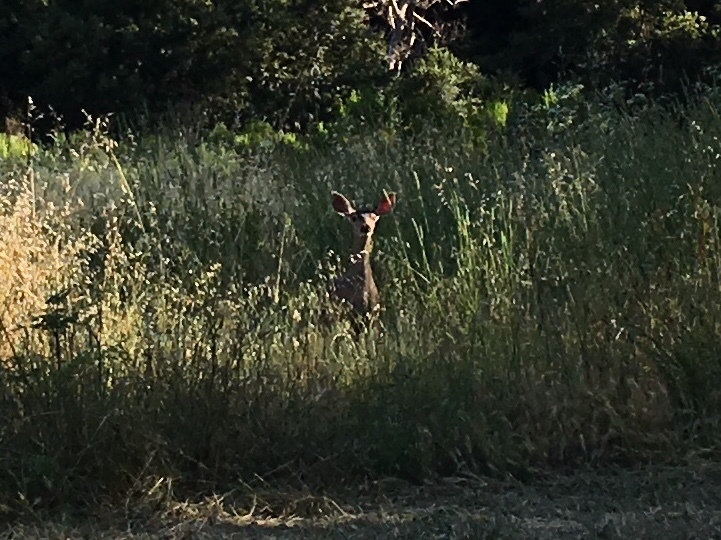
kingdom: Animalia
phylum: Chordata
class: Mammalia
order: Artiodactyla
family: Cervidae
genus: Odocoileus
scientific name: Odocoileus hemionus
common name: Mule deer
